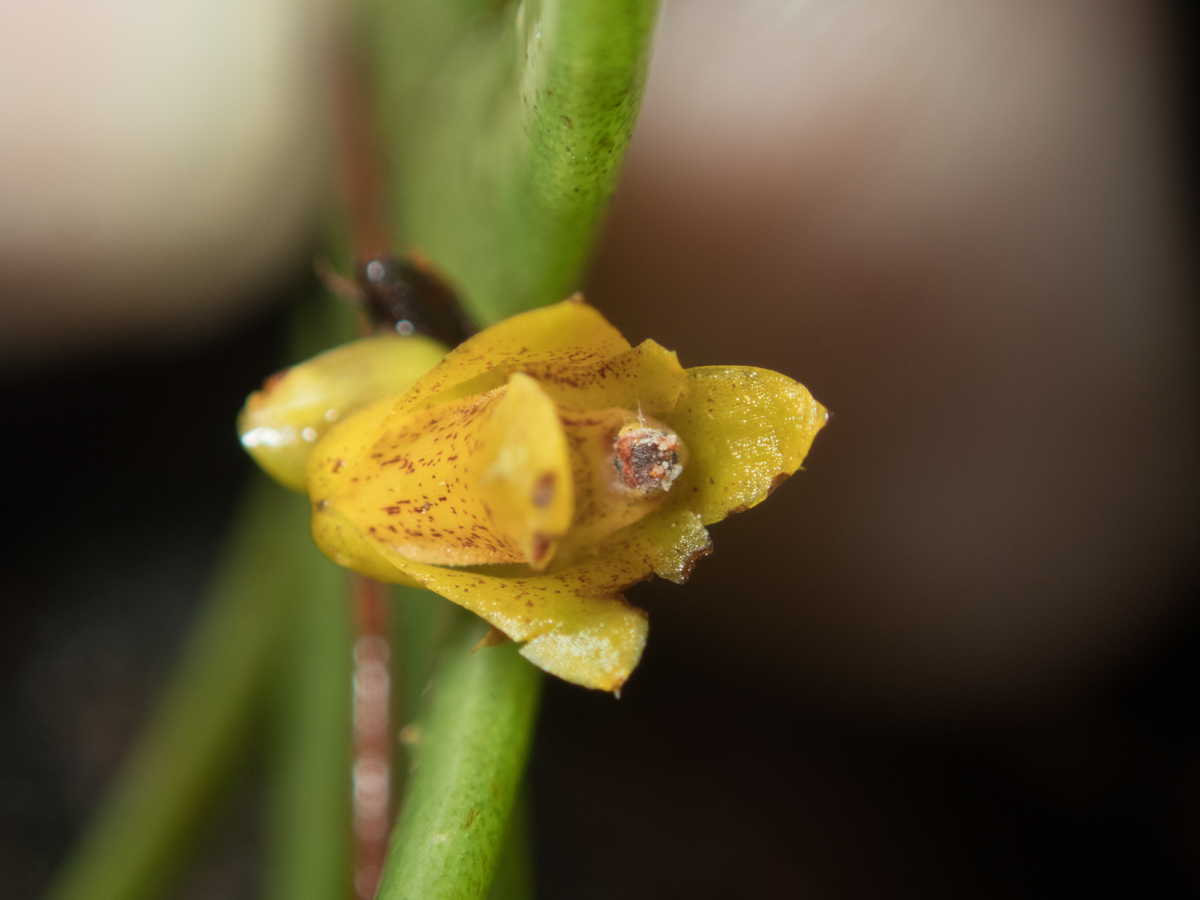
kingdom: Plantae
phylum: Tracheophyta
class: Liliopsida
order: Asparagales
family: Orchidaceae
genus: Oxystophyllum
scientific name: Oxystophyllum carnosum
